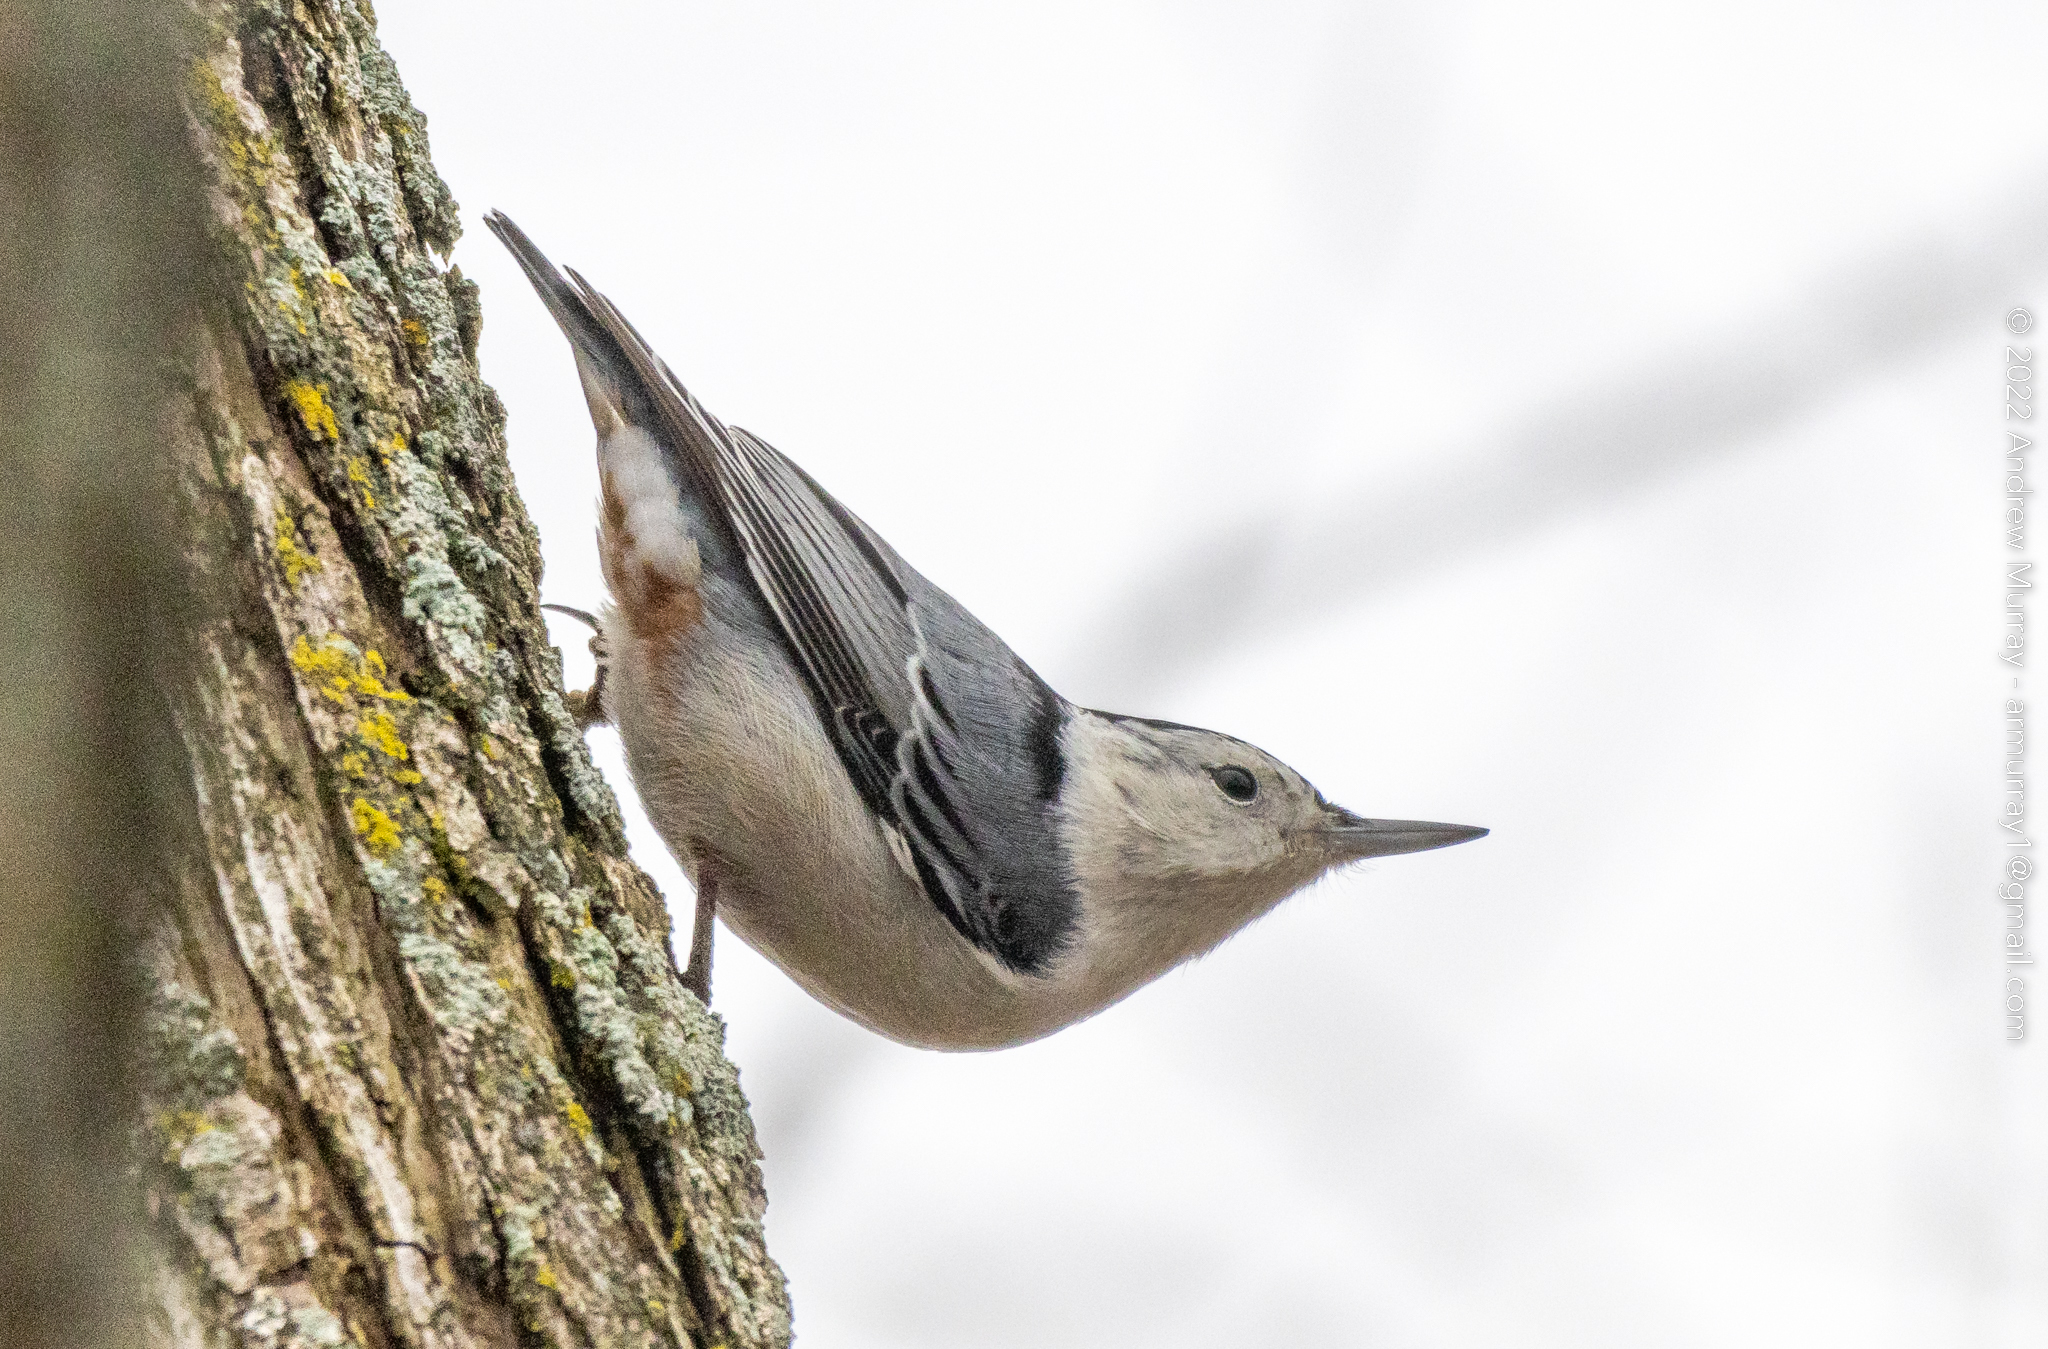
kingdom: Animalia
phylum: Chordata
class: Aves
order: Passeriformes
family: Sittidae
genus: Sitta
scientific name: Sitta carolinensis
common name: White-breasted nuthatch
